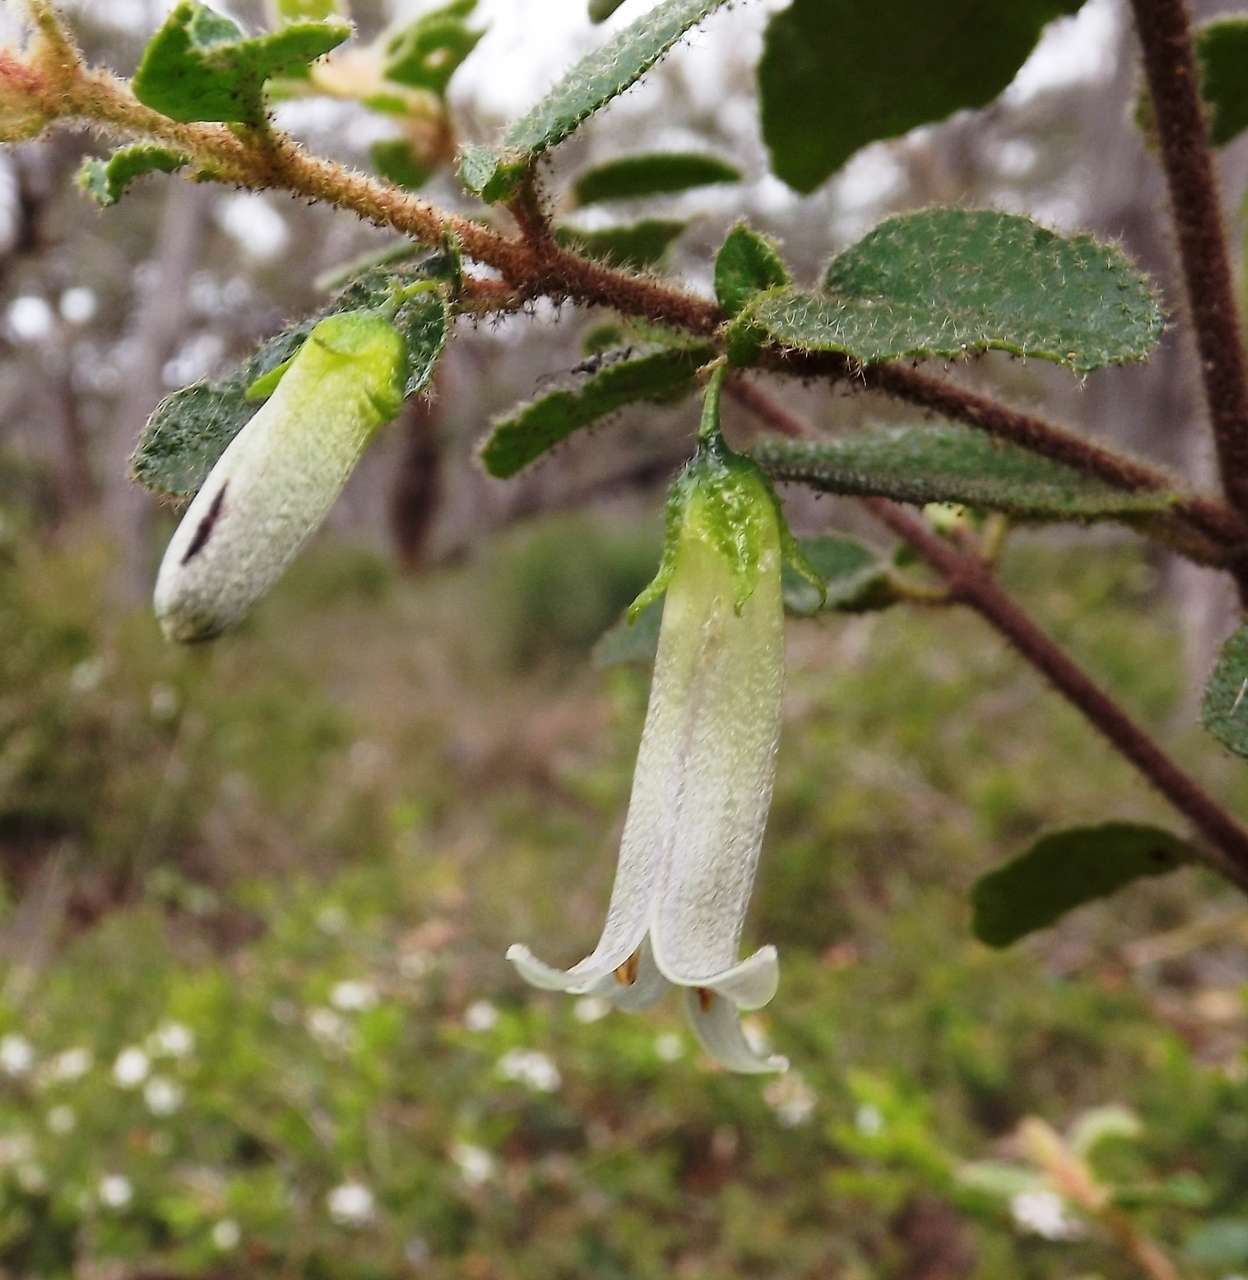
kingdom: Plantae
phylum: Tracheophyta
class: Magnoliopsida
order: Sapindales
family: Rutaceae
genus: Correa
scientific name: Correa aemula
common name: Hairy correa
